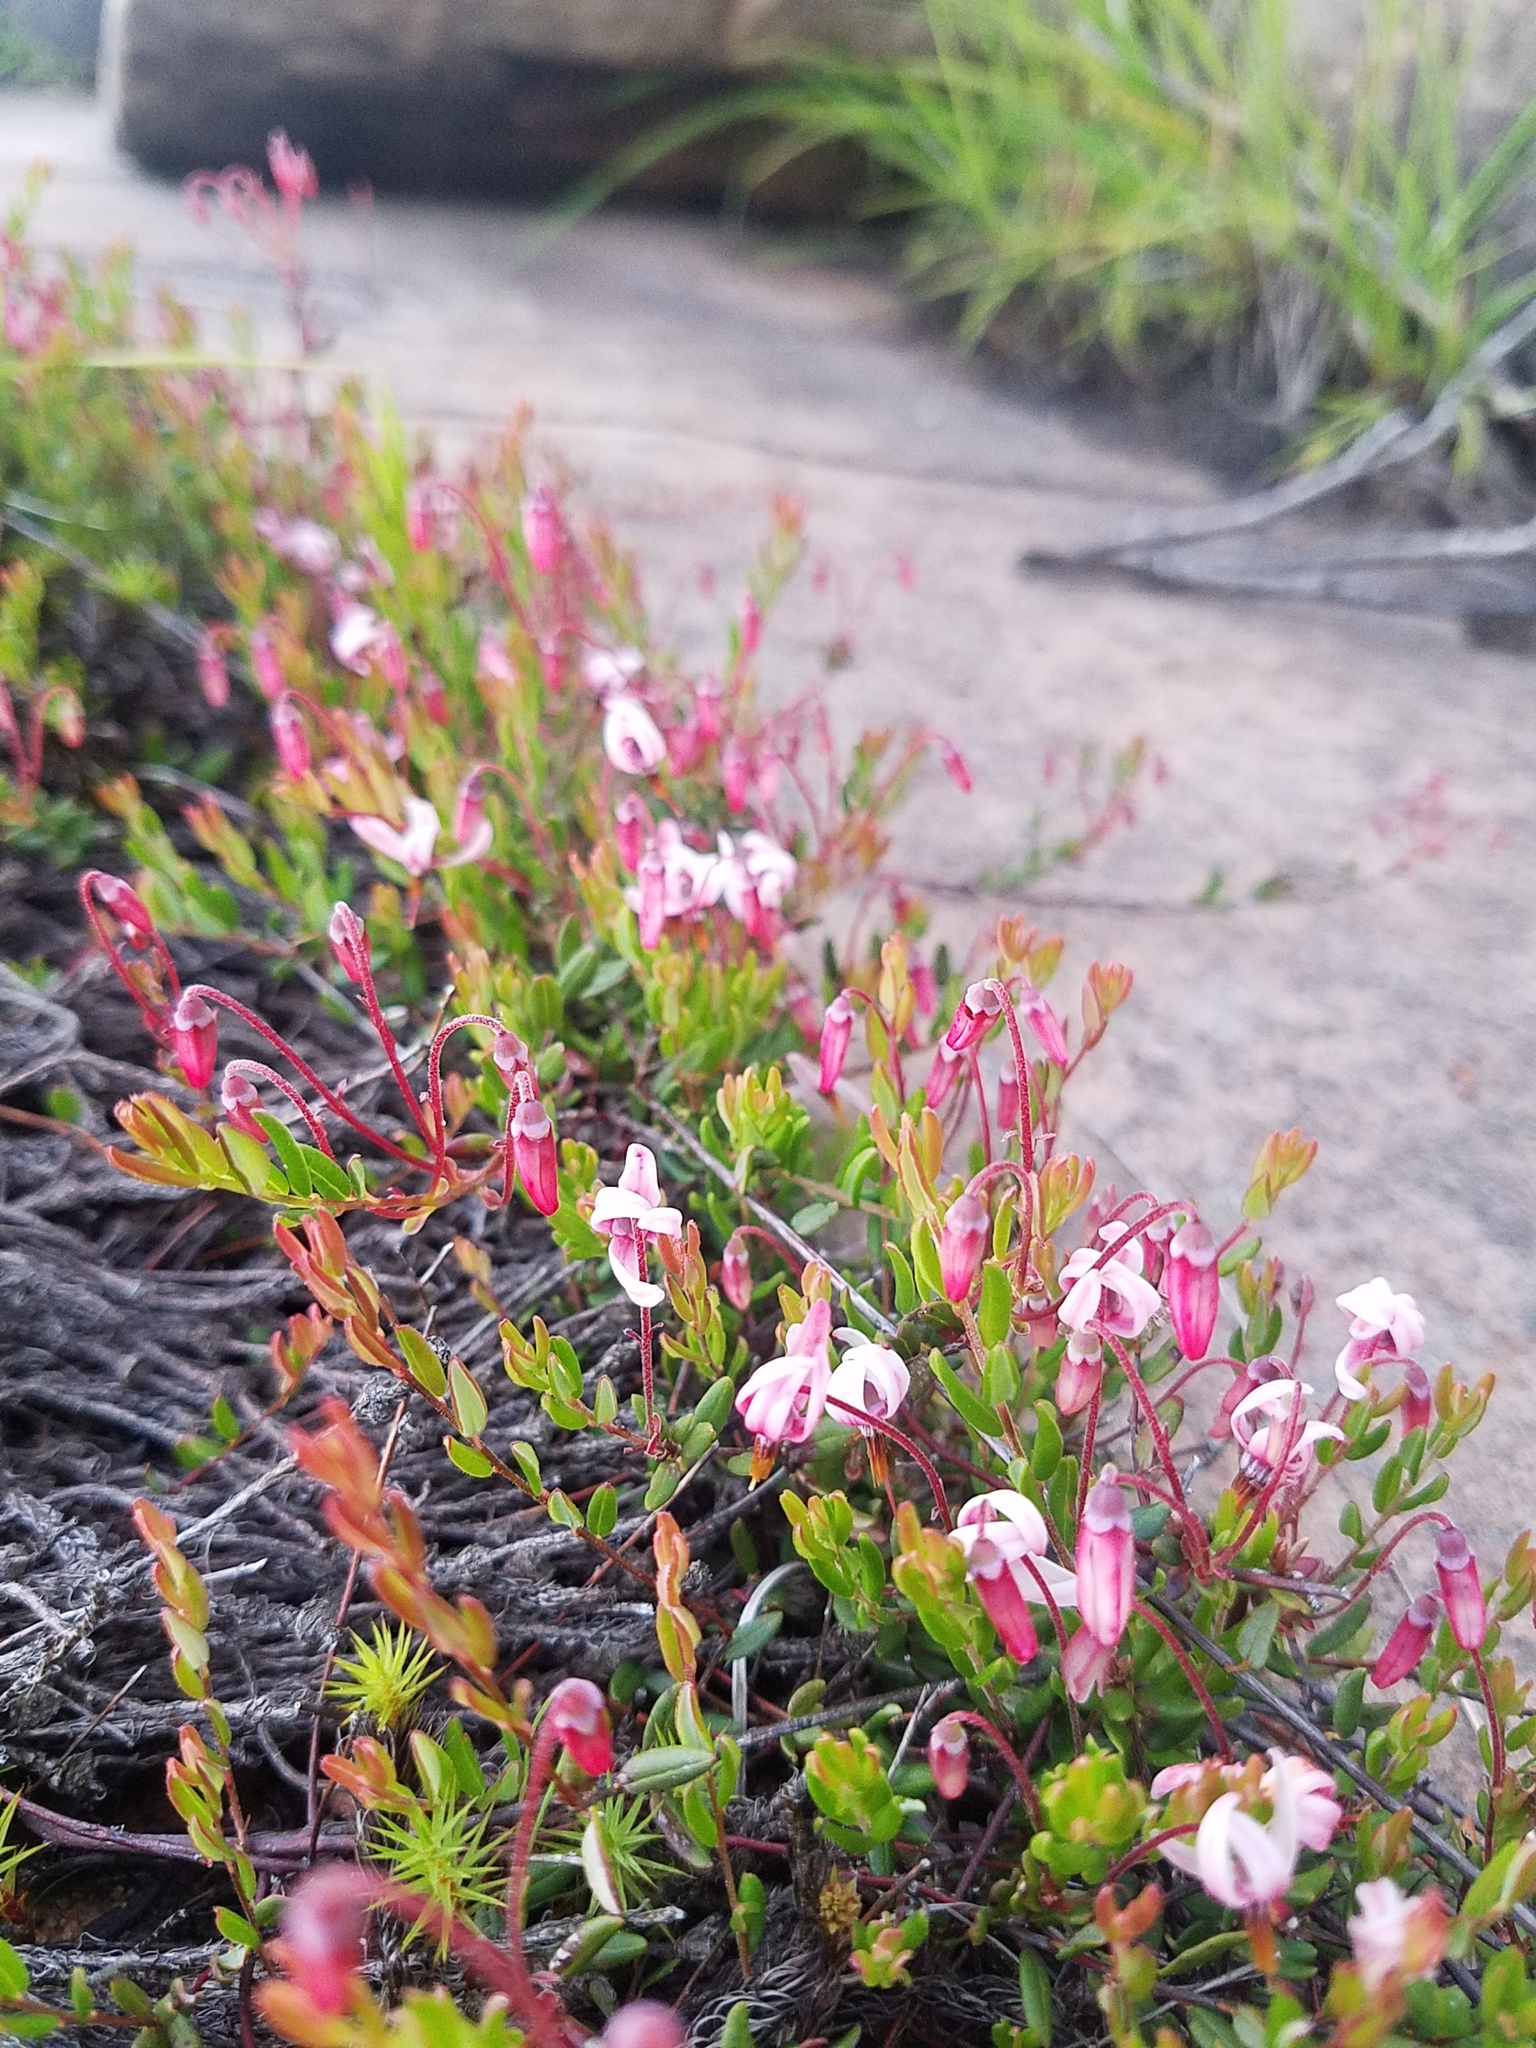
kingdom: Plantae
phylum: Tracheophyta
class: Magnoliopsida
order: Ericales
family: Ericaceae
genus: Vaccinium
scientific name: Vaccinium oxycoccos
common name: Cranberry
